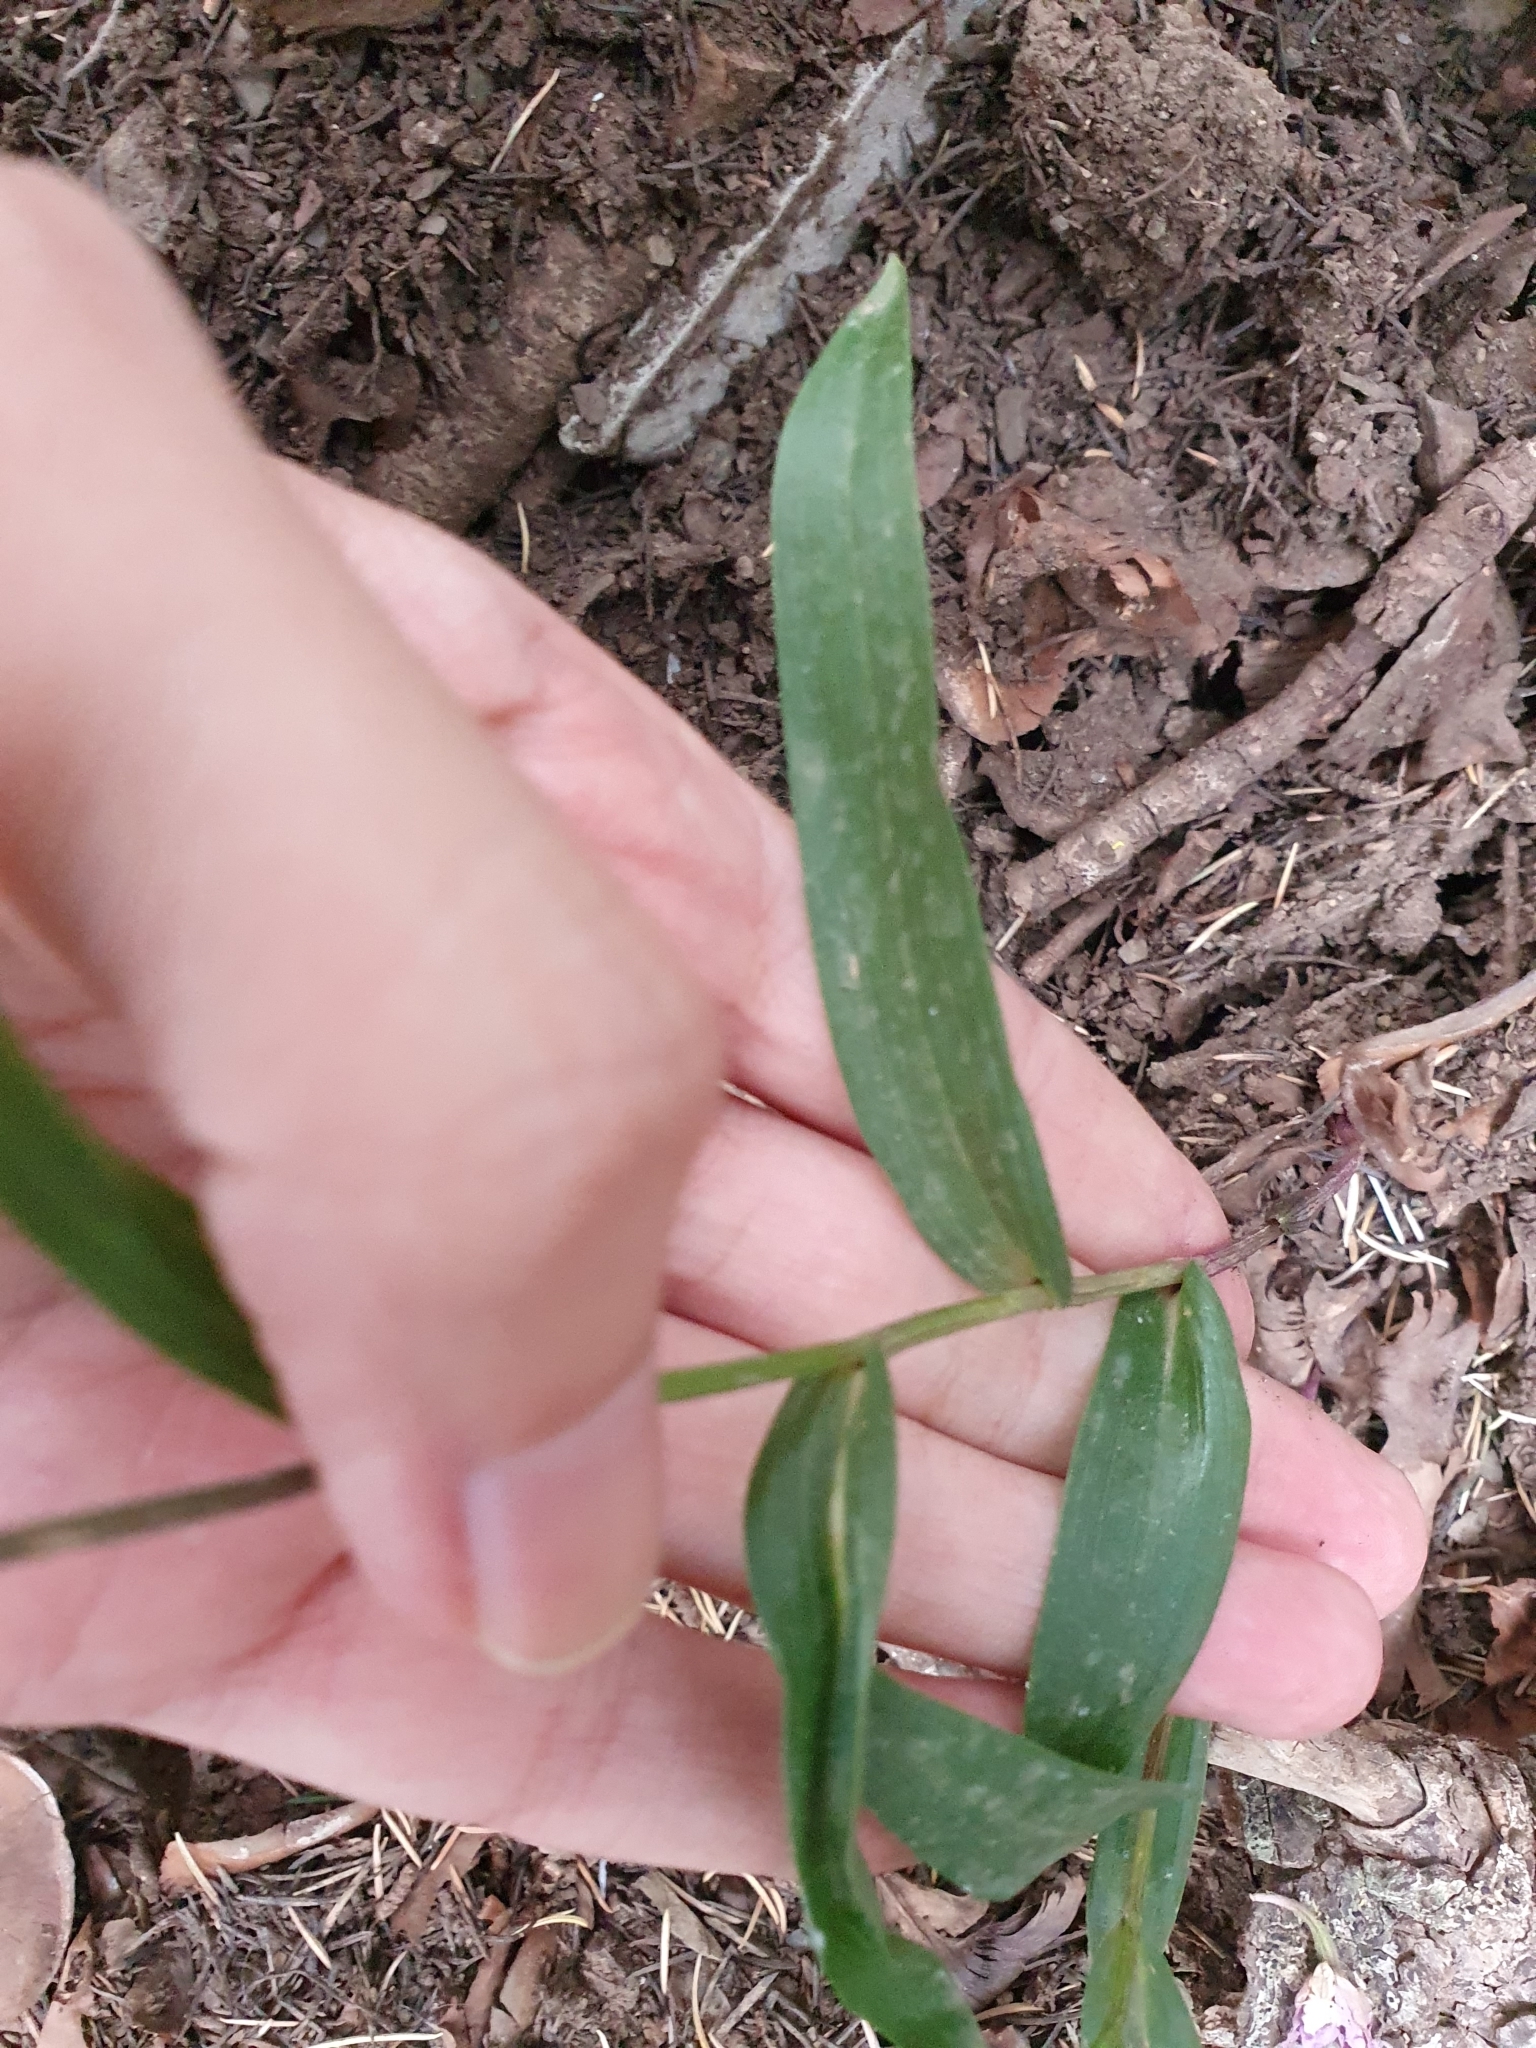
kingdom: Plantae
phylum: Tracheophyta
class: Liliopsida
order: Asparagales
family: Orchidaceae
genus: Cephalanthera
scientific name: Cephalanthera rubra
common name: Red helleborine
